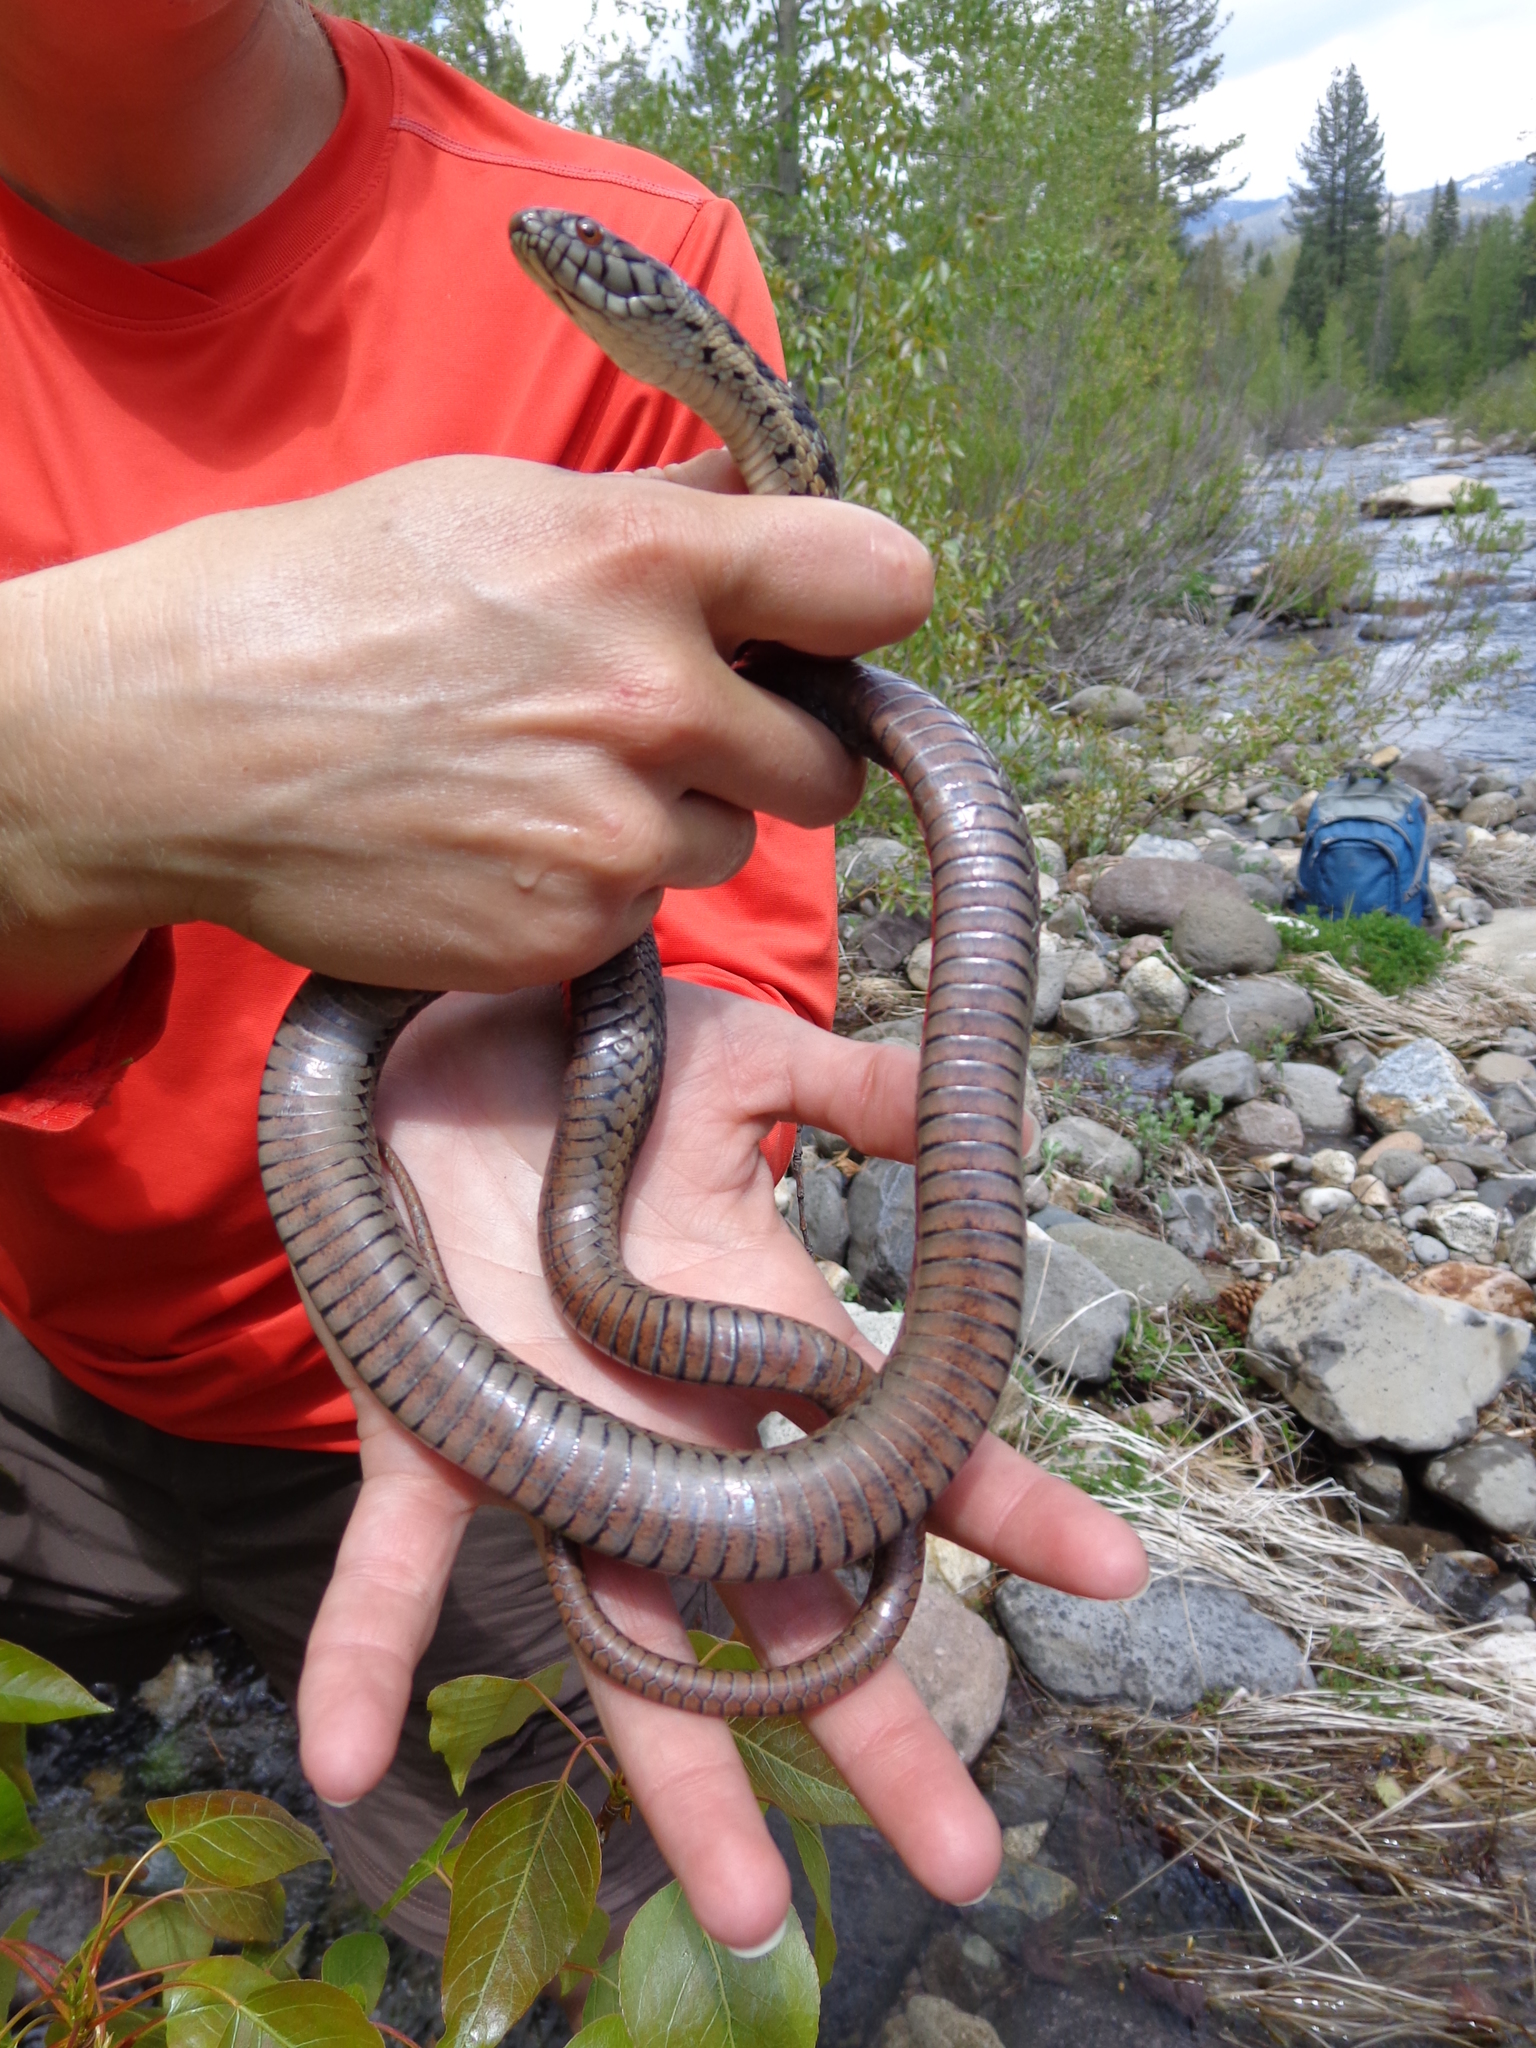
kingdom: Animalia
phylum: Chordata
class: Squamata
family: Colubridae
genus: Thamnophis
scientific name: Thamnophis couchii
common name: Western aquatic garter snake
